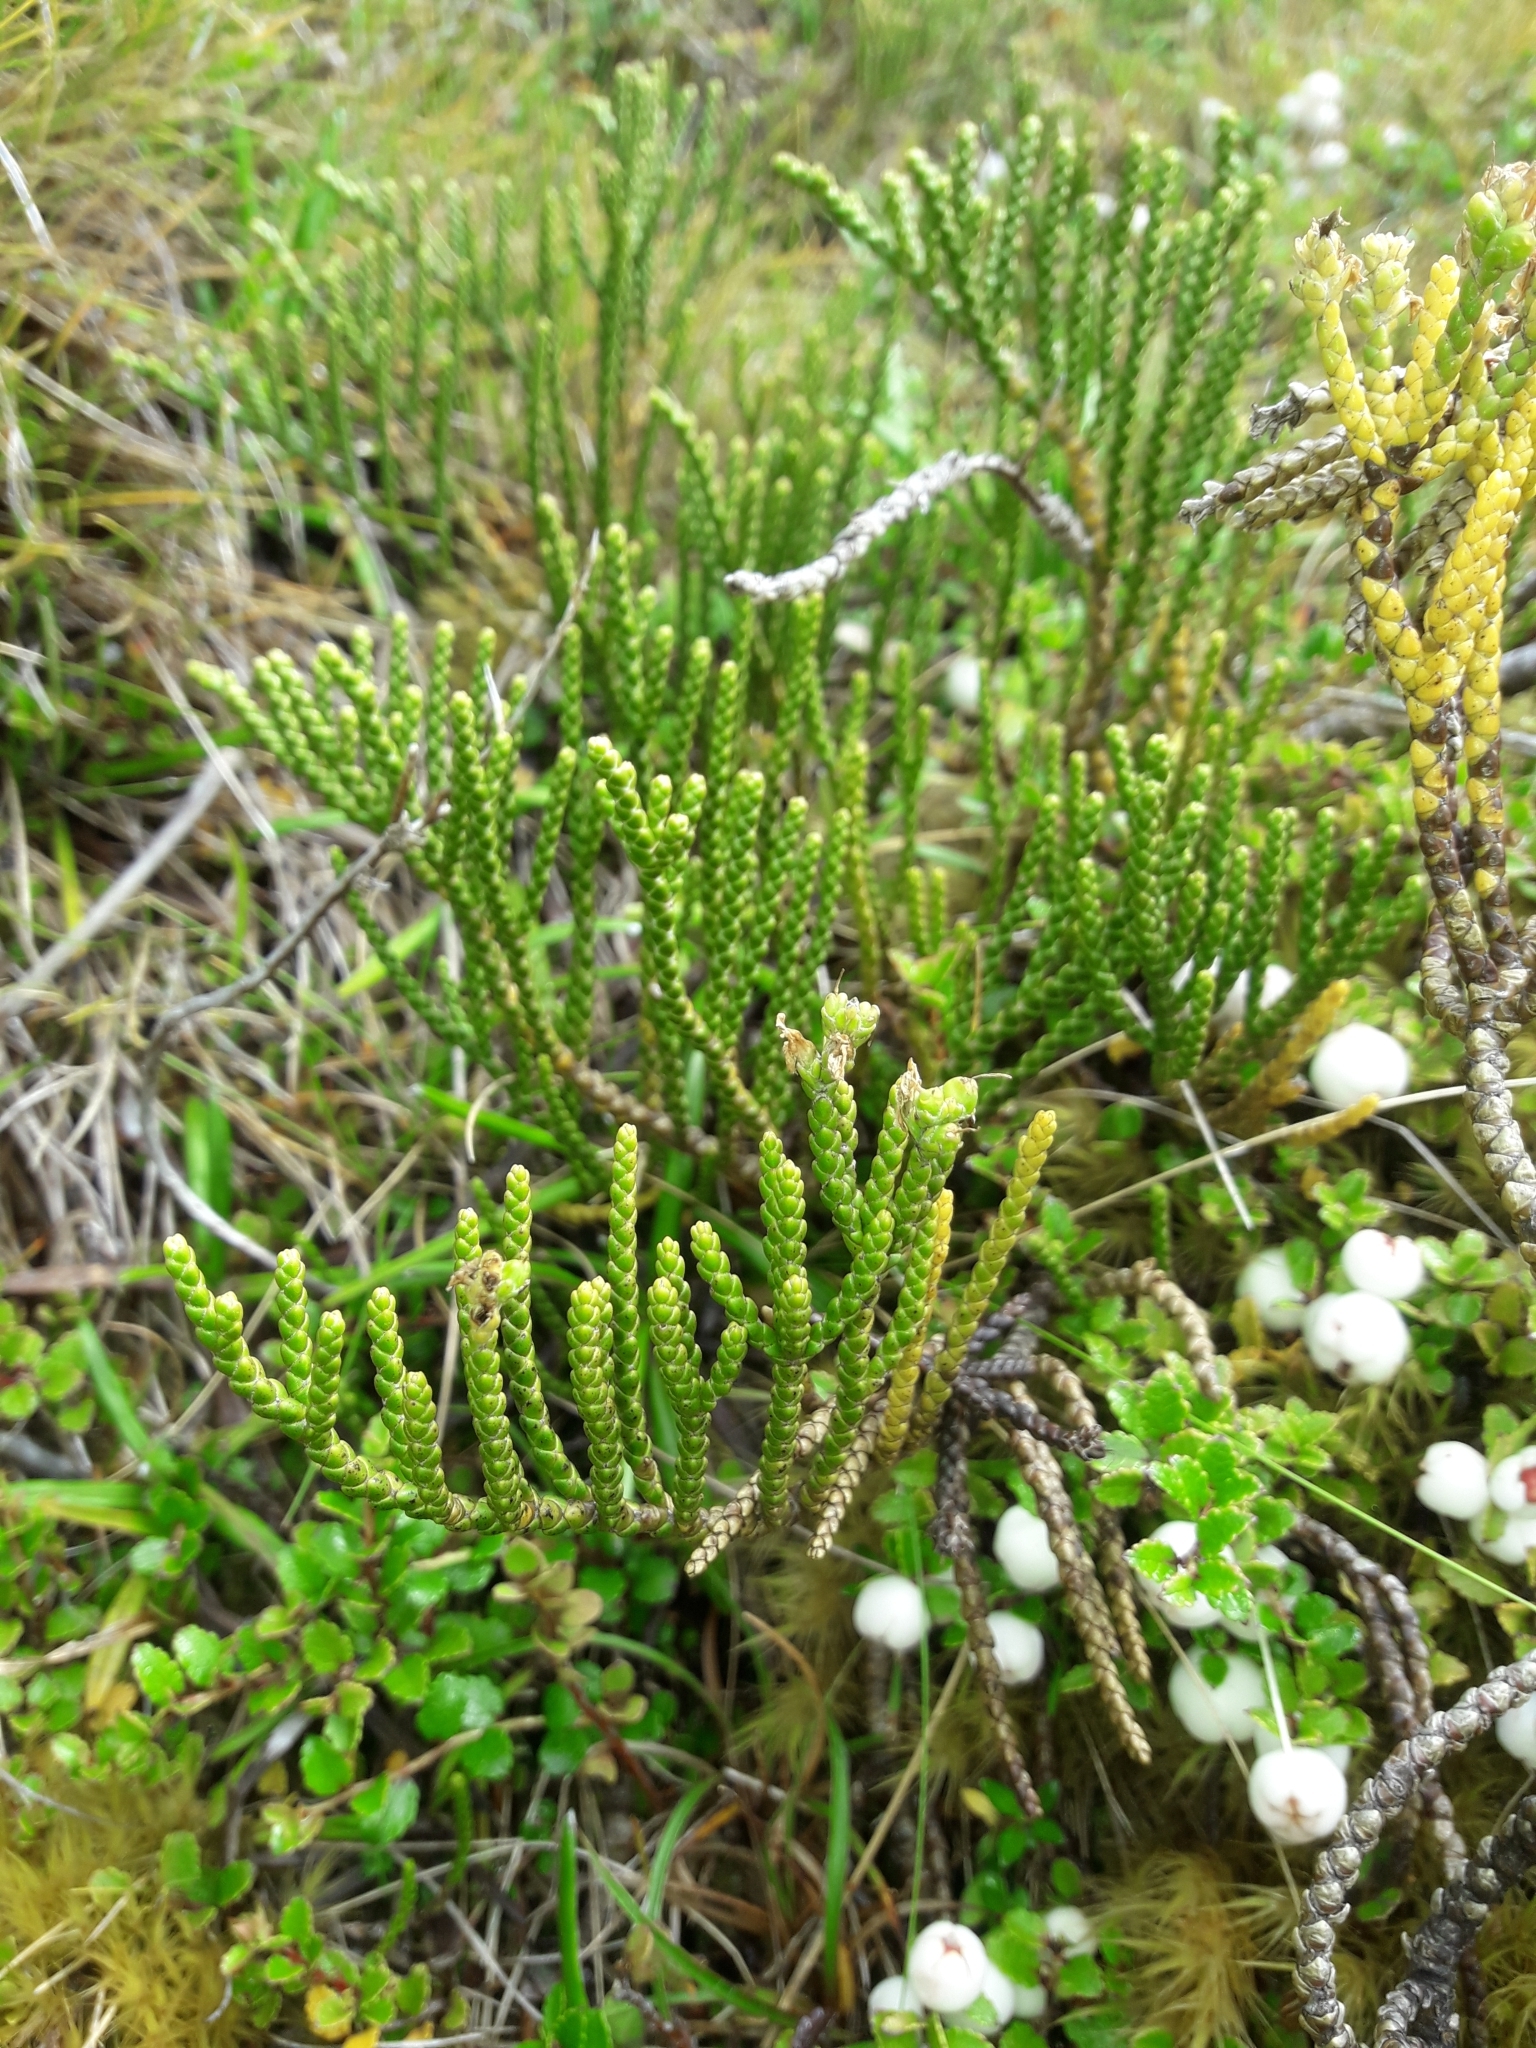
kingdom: Plantae
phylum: Tracheophyta
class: Magnoliopsida
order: Lamiales
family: Plantaginaceae
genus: Veronica
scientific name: Veronica hectorii
